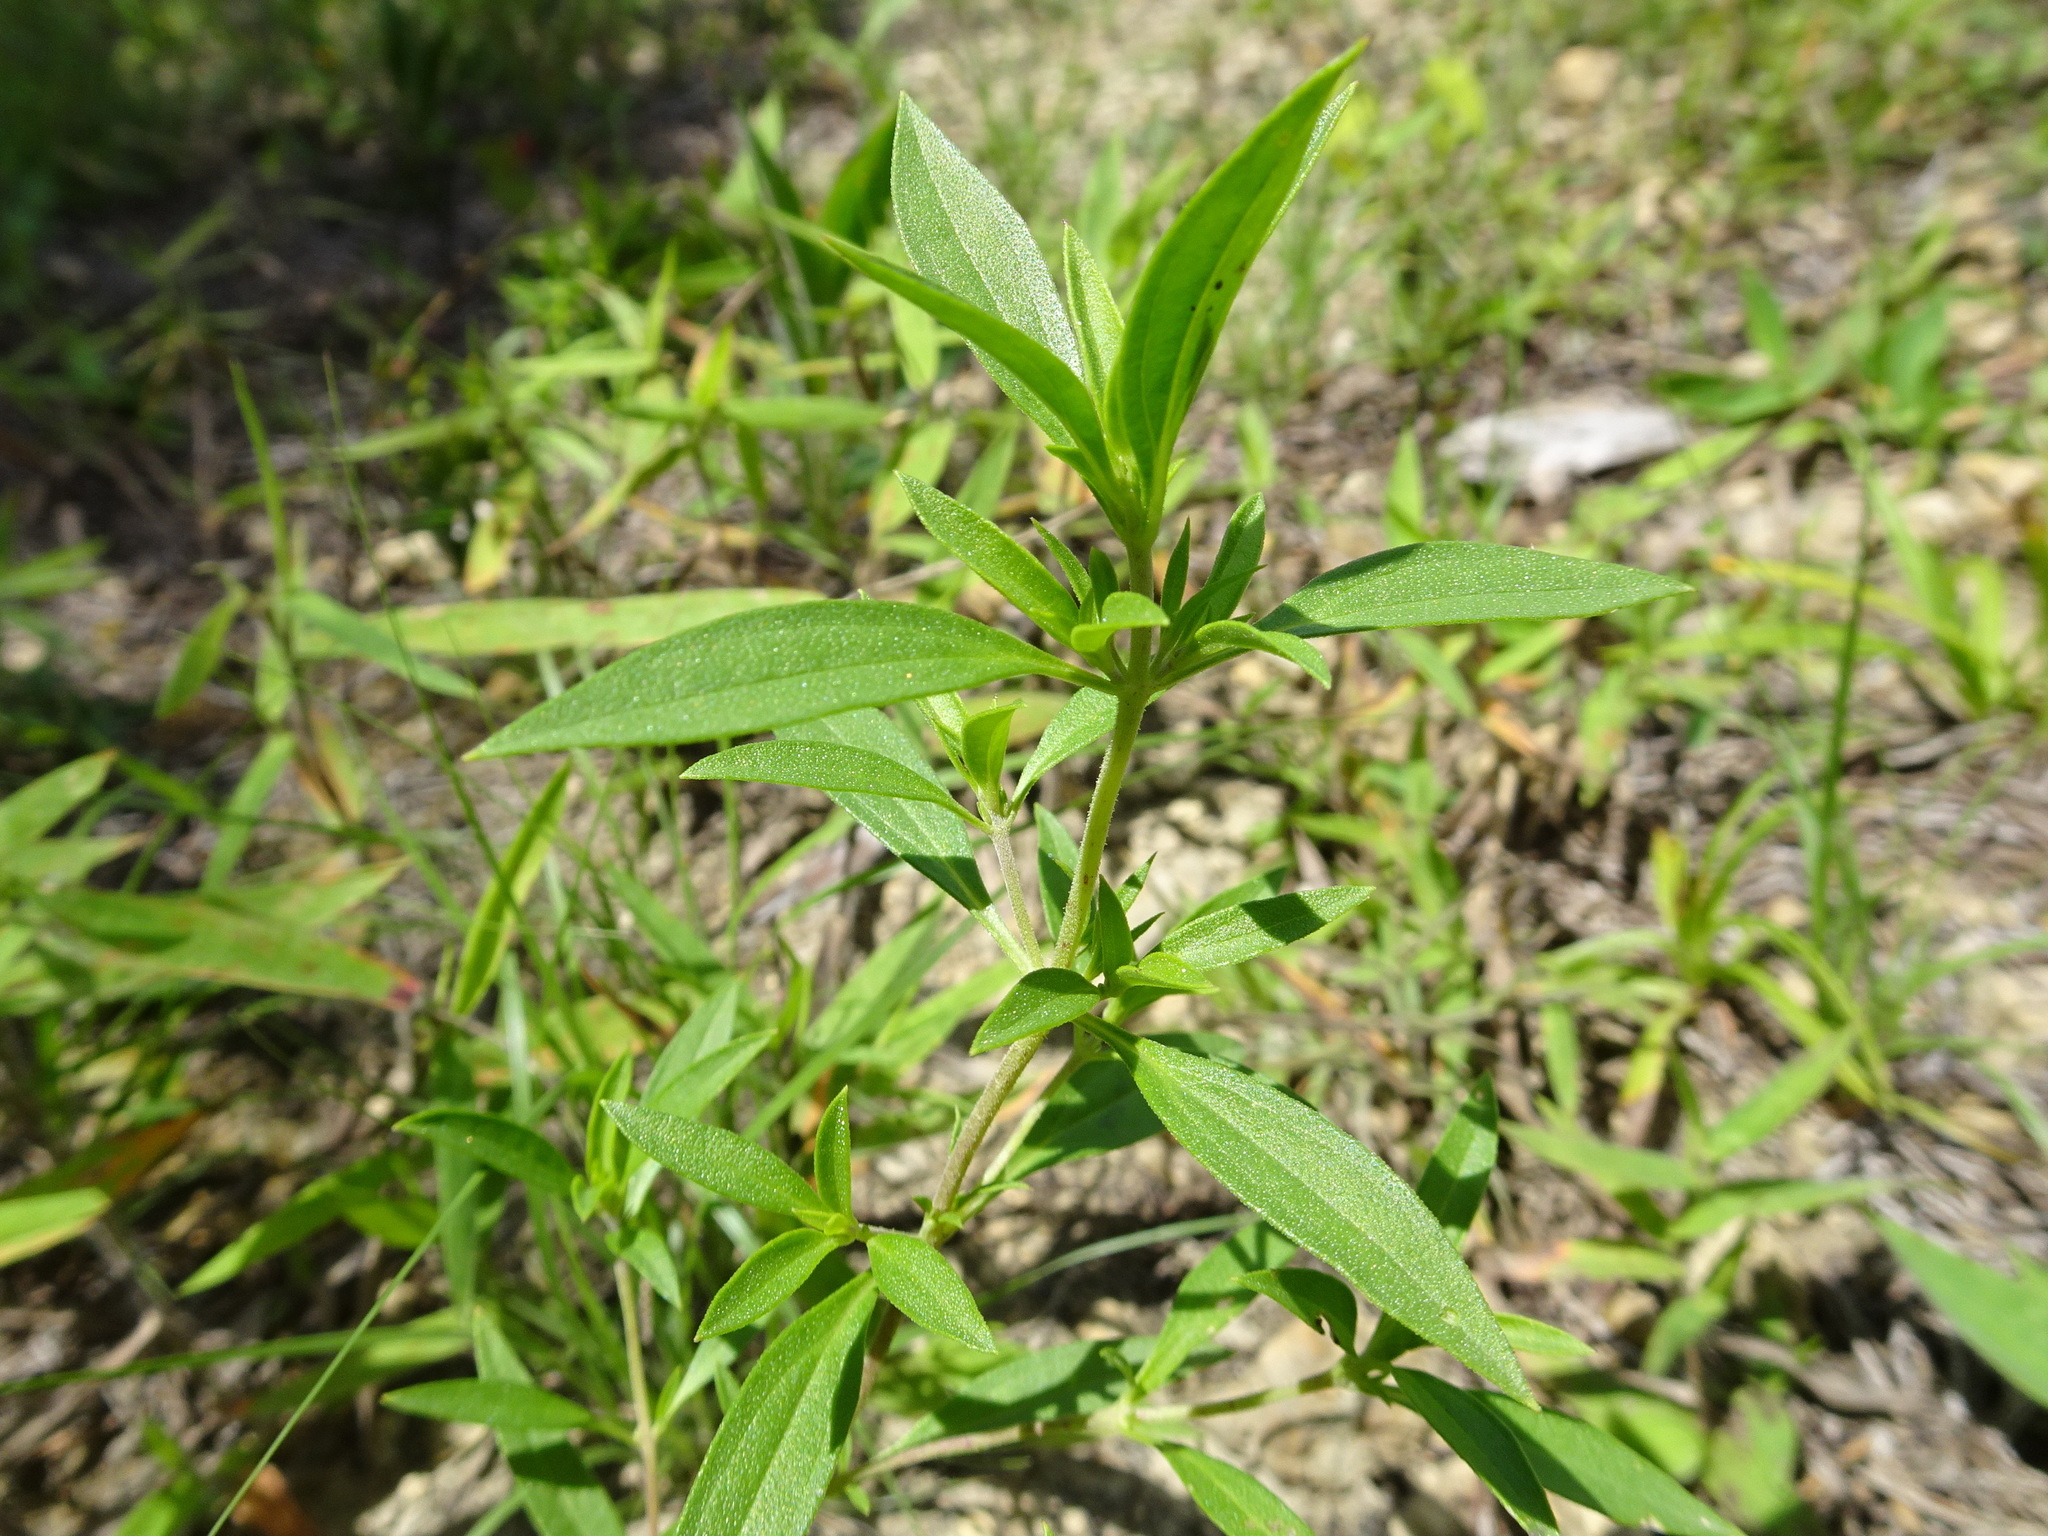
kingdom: Plantae
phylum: Tracheophyta
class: Magnoliopsida
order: Lamiales
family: Lamiaceae
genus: Trichostema
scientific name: Trichostema brachiatum
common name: False pennyroyal
